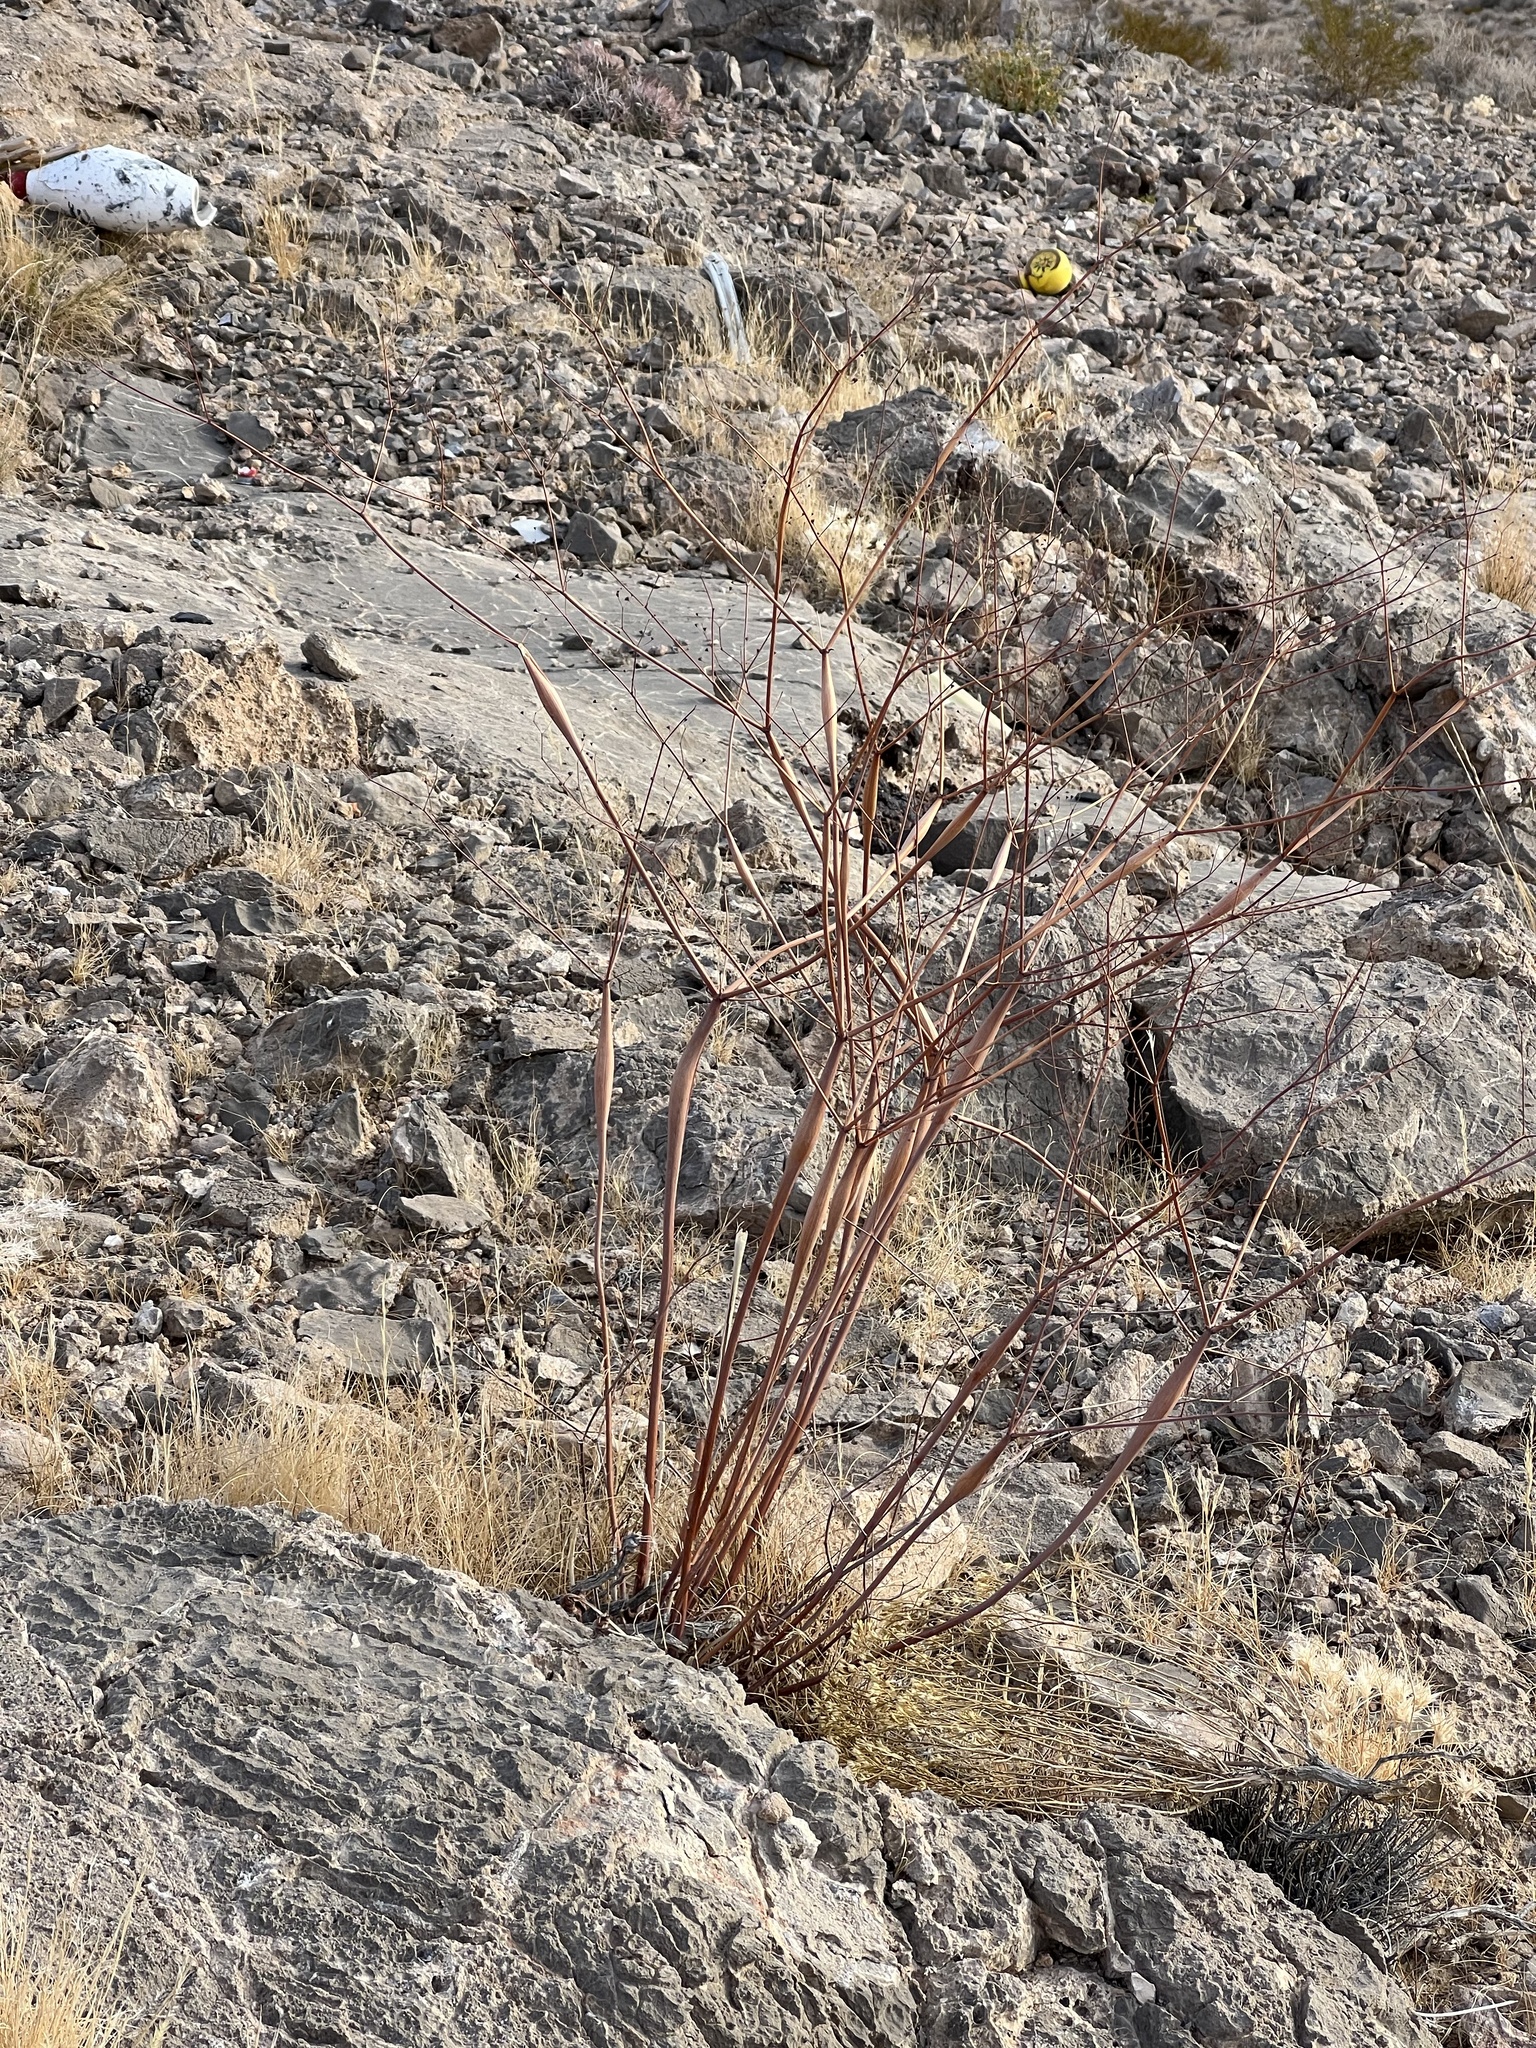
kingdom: Plantae
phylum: Tracheophyta
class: Magnoliopsida
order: Caryophyllales
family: Polygonaceae
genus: Eriogonum
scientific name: Eriogonum inflatum
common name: Desert trumpet
